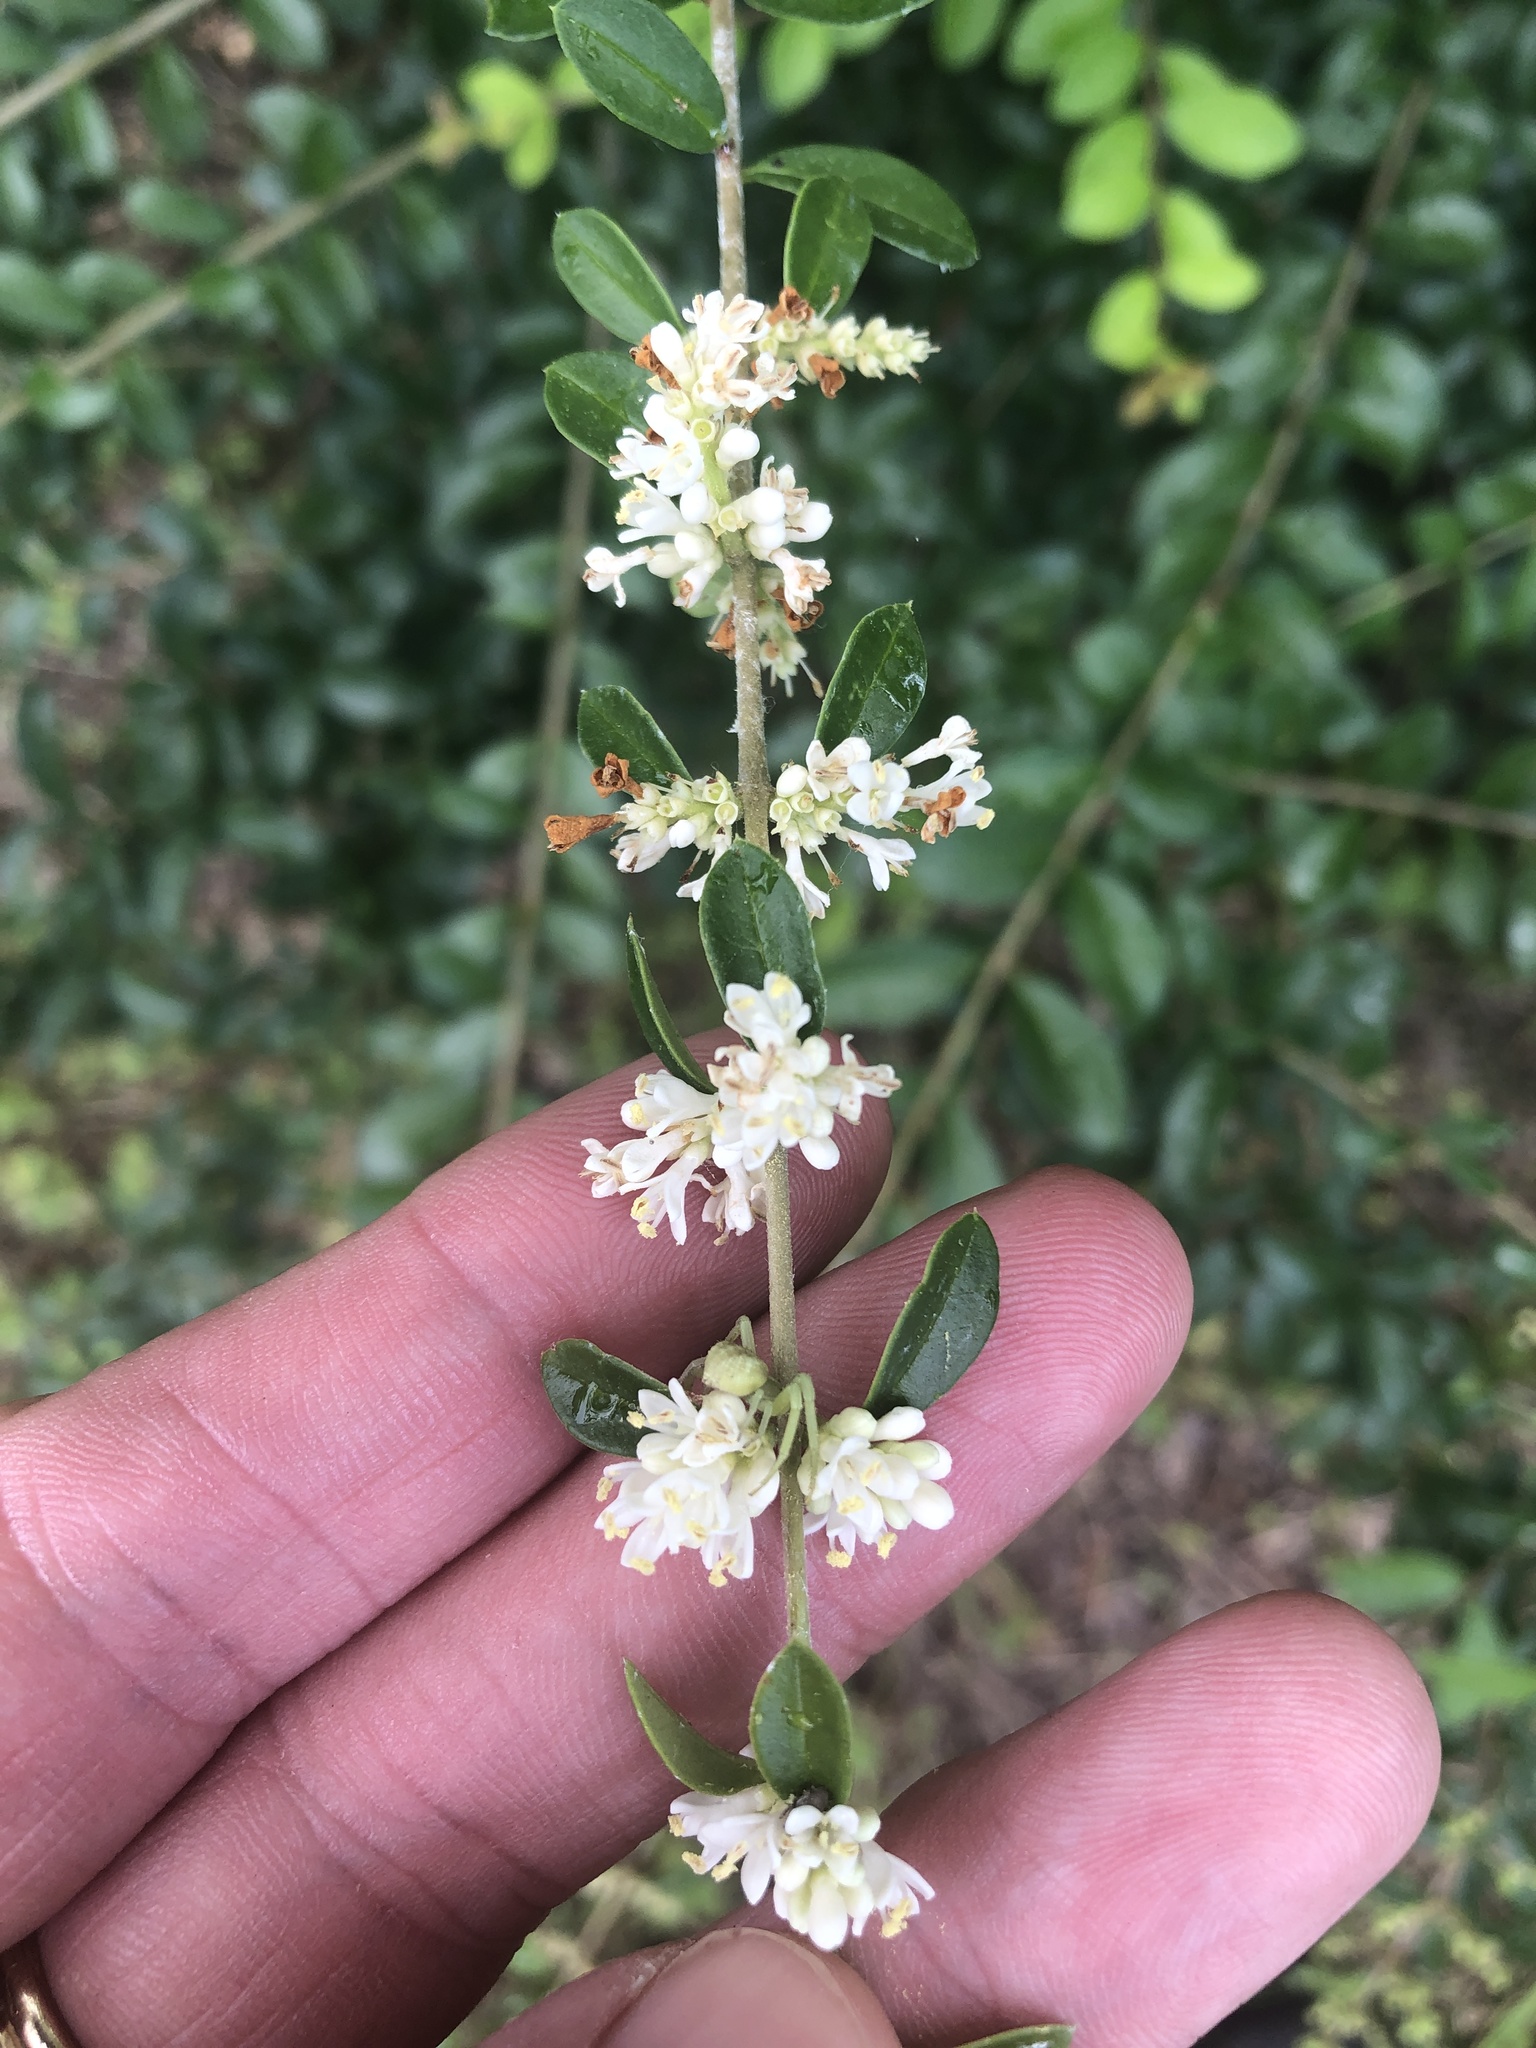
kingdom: Plantae
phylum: Tracheophyta
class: Magnoliopsida
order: Lamiales
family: Oleaceae
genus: Ligustrum
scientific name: Ligustrum quihoui
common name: Waxyleaf privet
